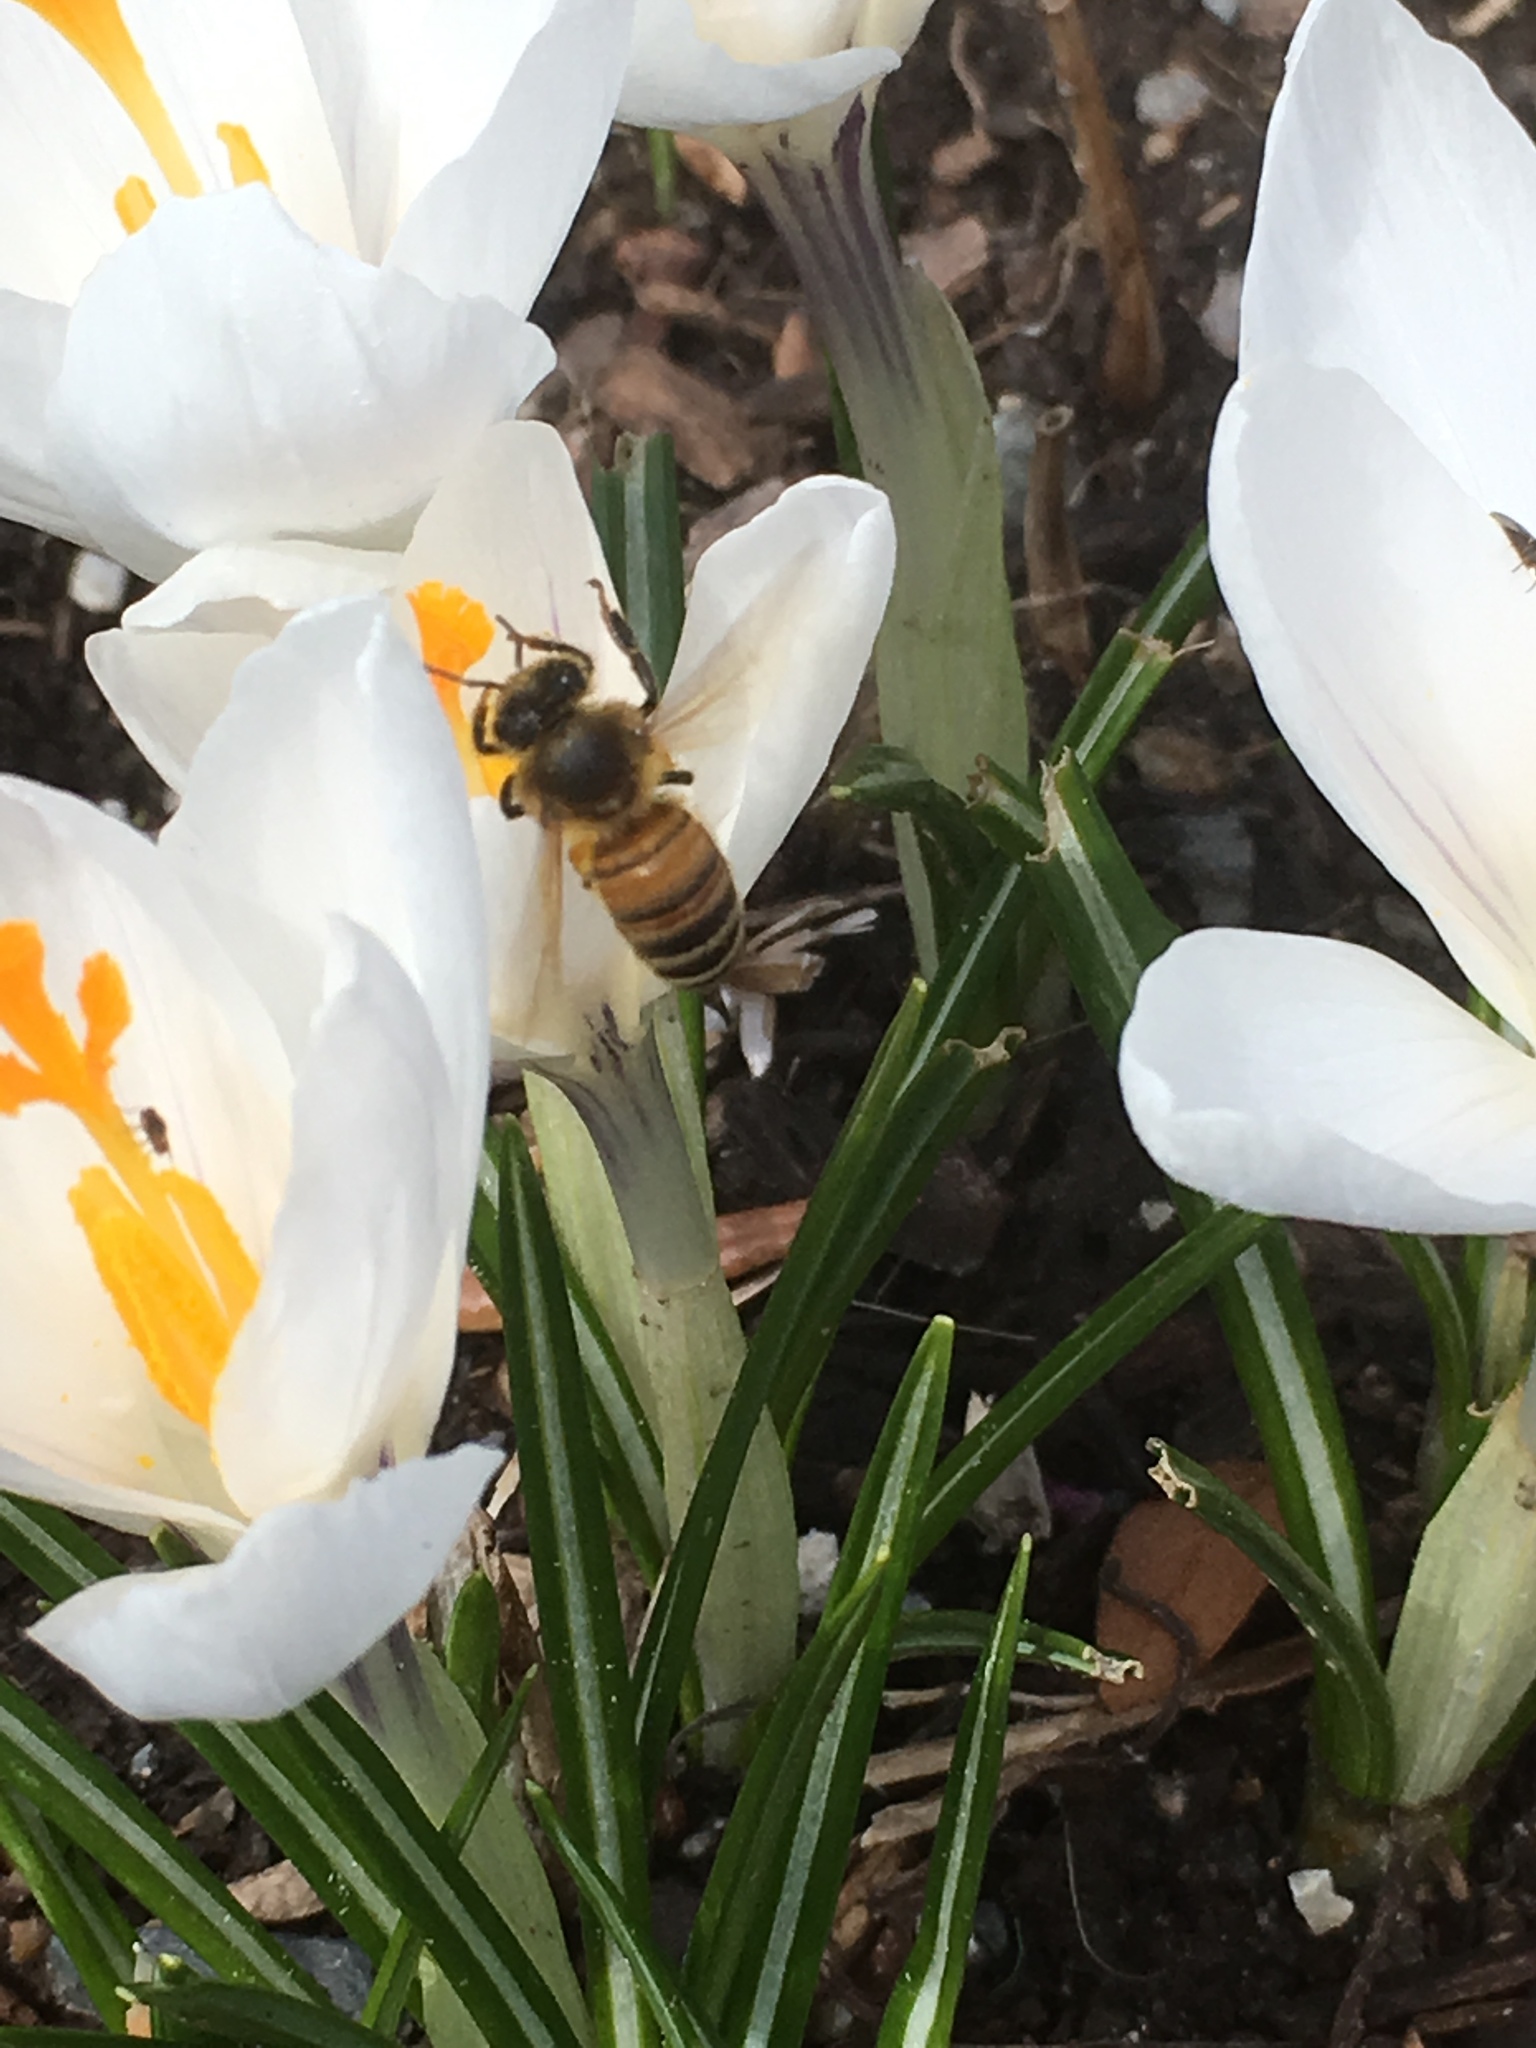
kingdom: Animalia
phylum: Arthropoda
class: Insecta
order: Hymenoptera
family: Apidae
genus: Apis
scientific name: Apis mellifera
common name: Honey bee
